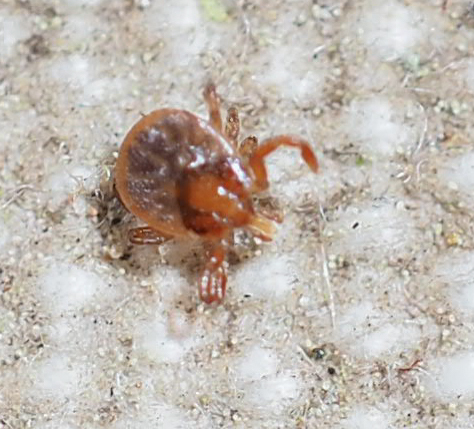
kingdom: Animalia
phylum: Arthropoda
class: Arachnida
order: Ixodida
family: Ixodidae
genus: Amblyomma
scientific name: Amblyomma americanum
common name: Lone star tick
